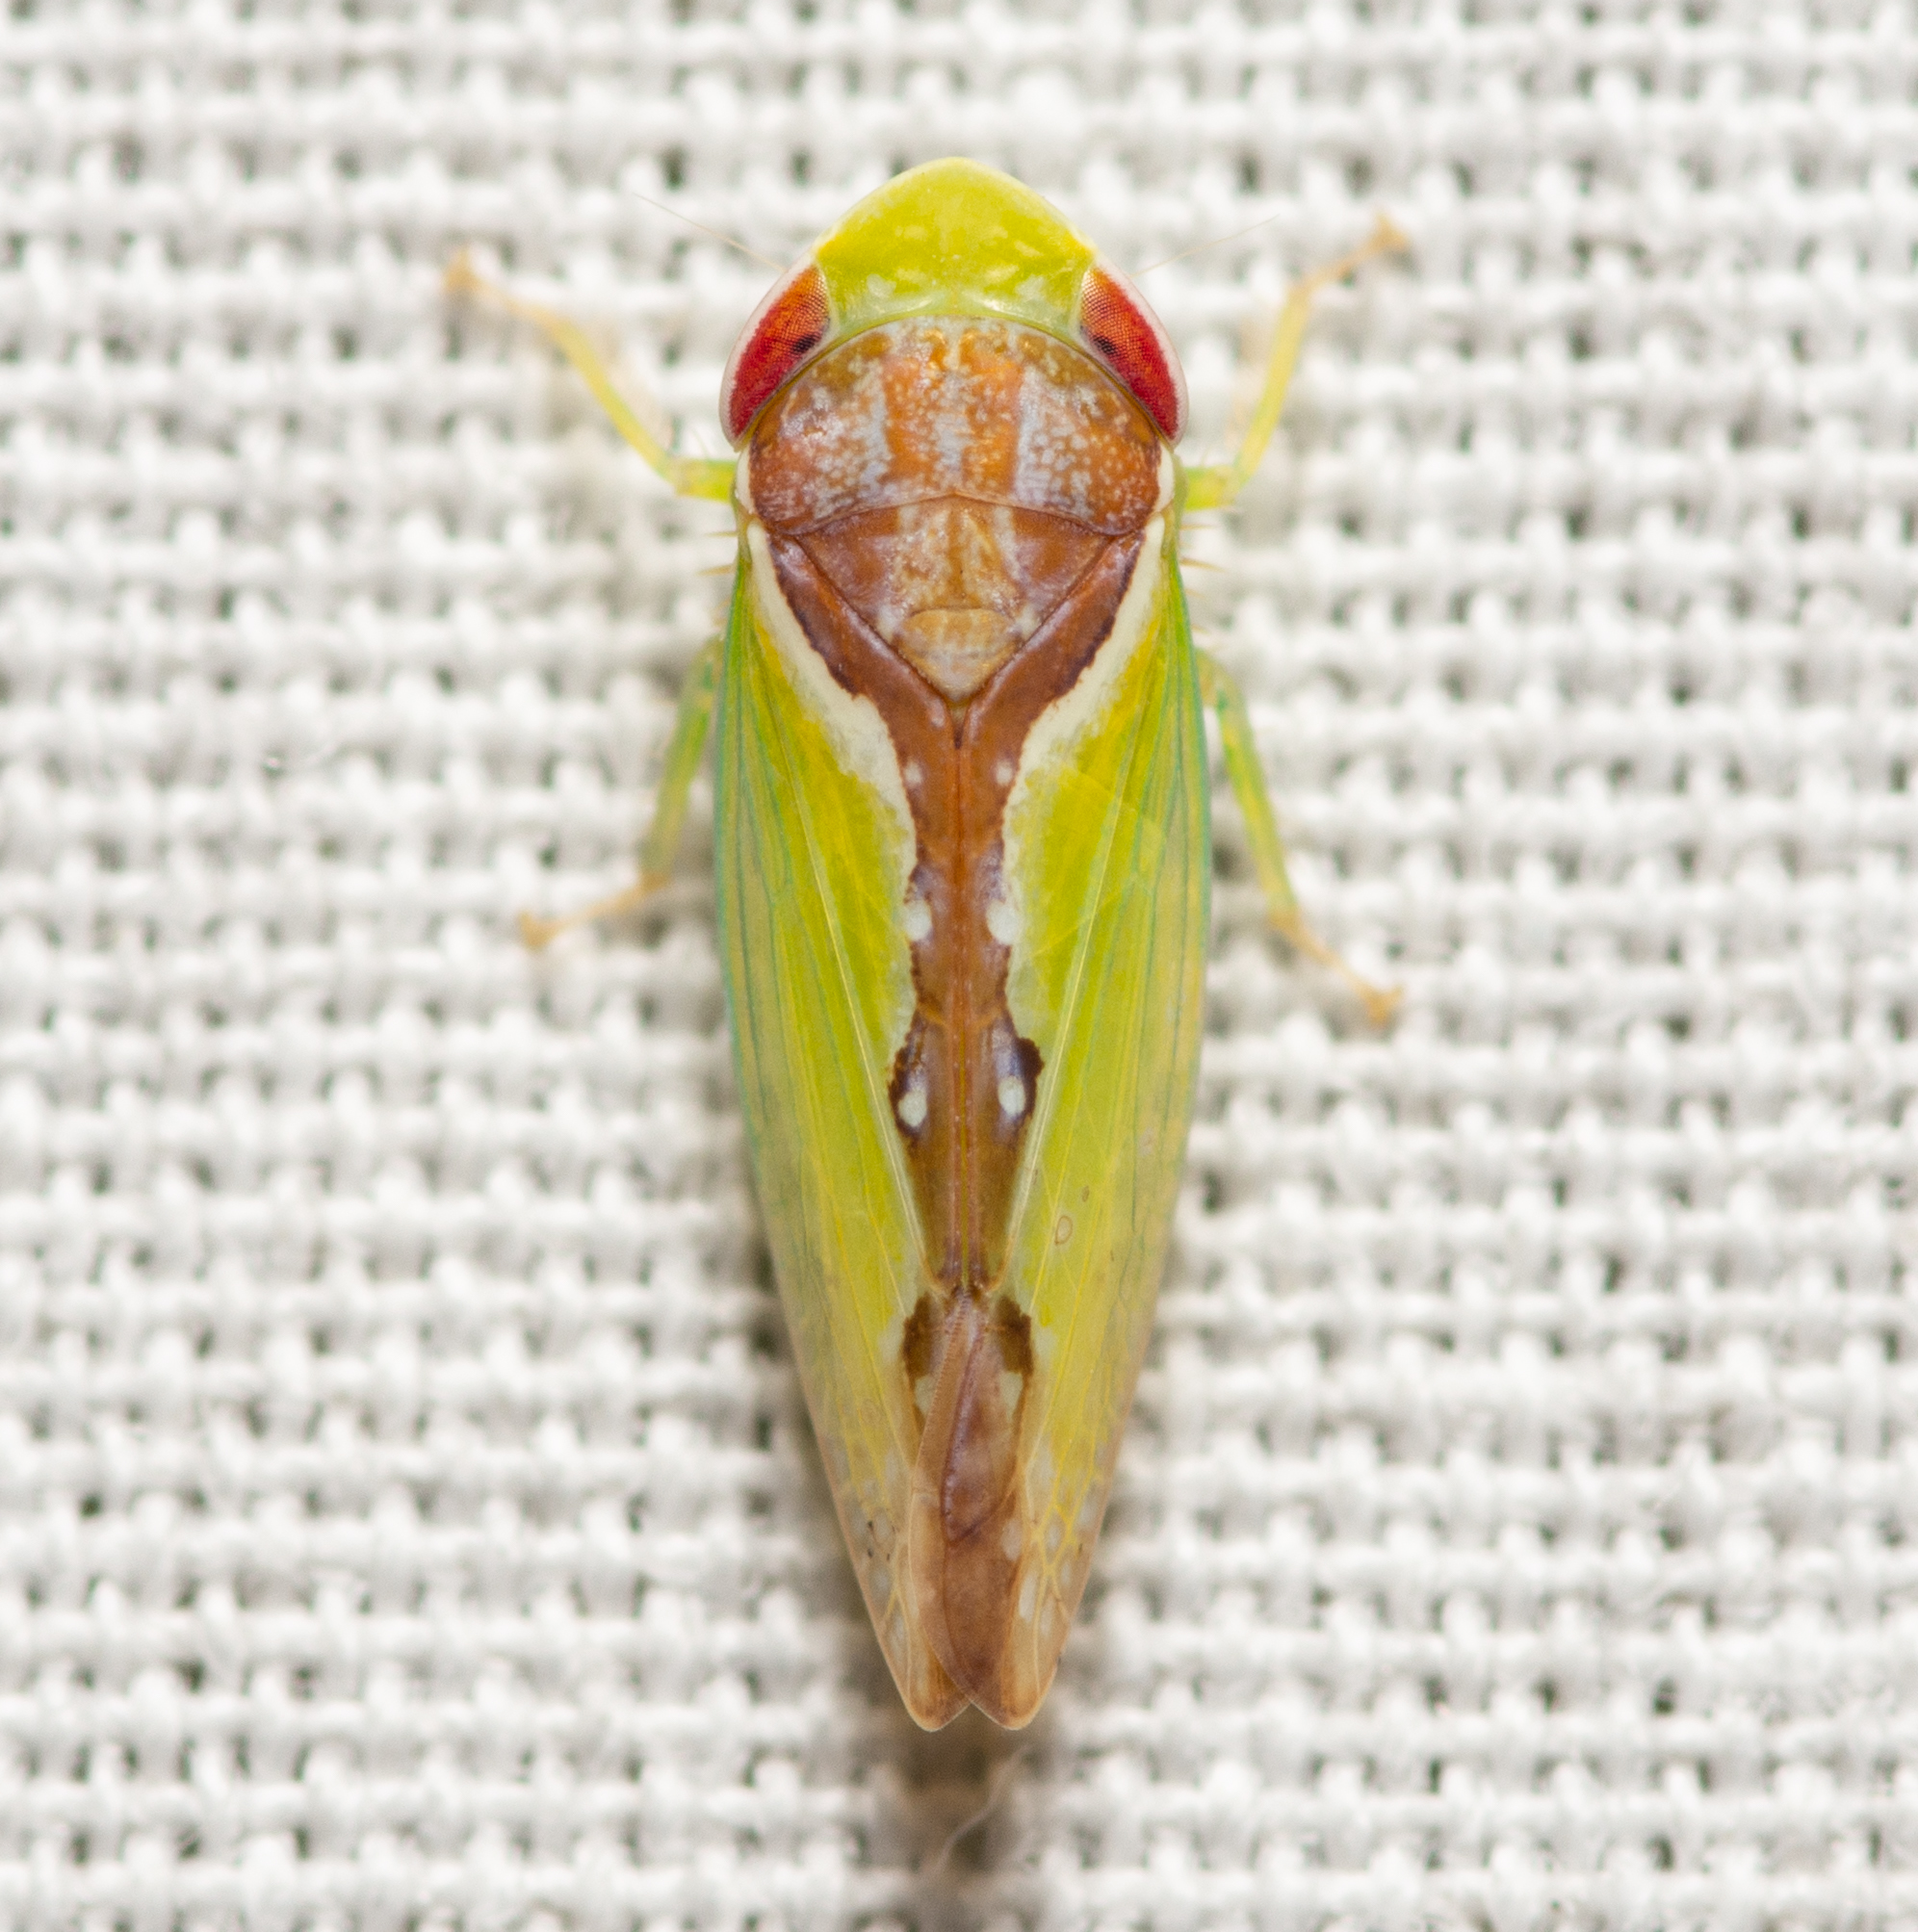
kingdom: Animalia
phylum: Arthropoda
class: Insecta
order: Hemiptera
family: Cicadellidae
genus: Omansobara ing
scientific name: Omansobara ing Omansobara palliolata
